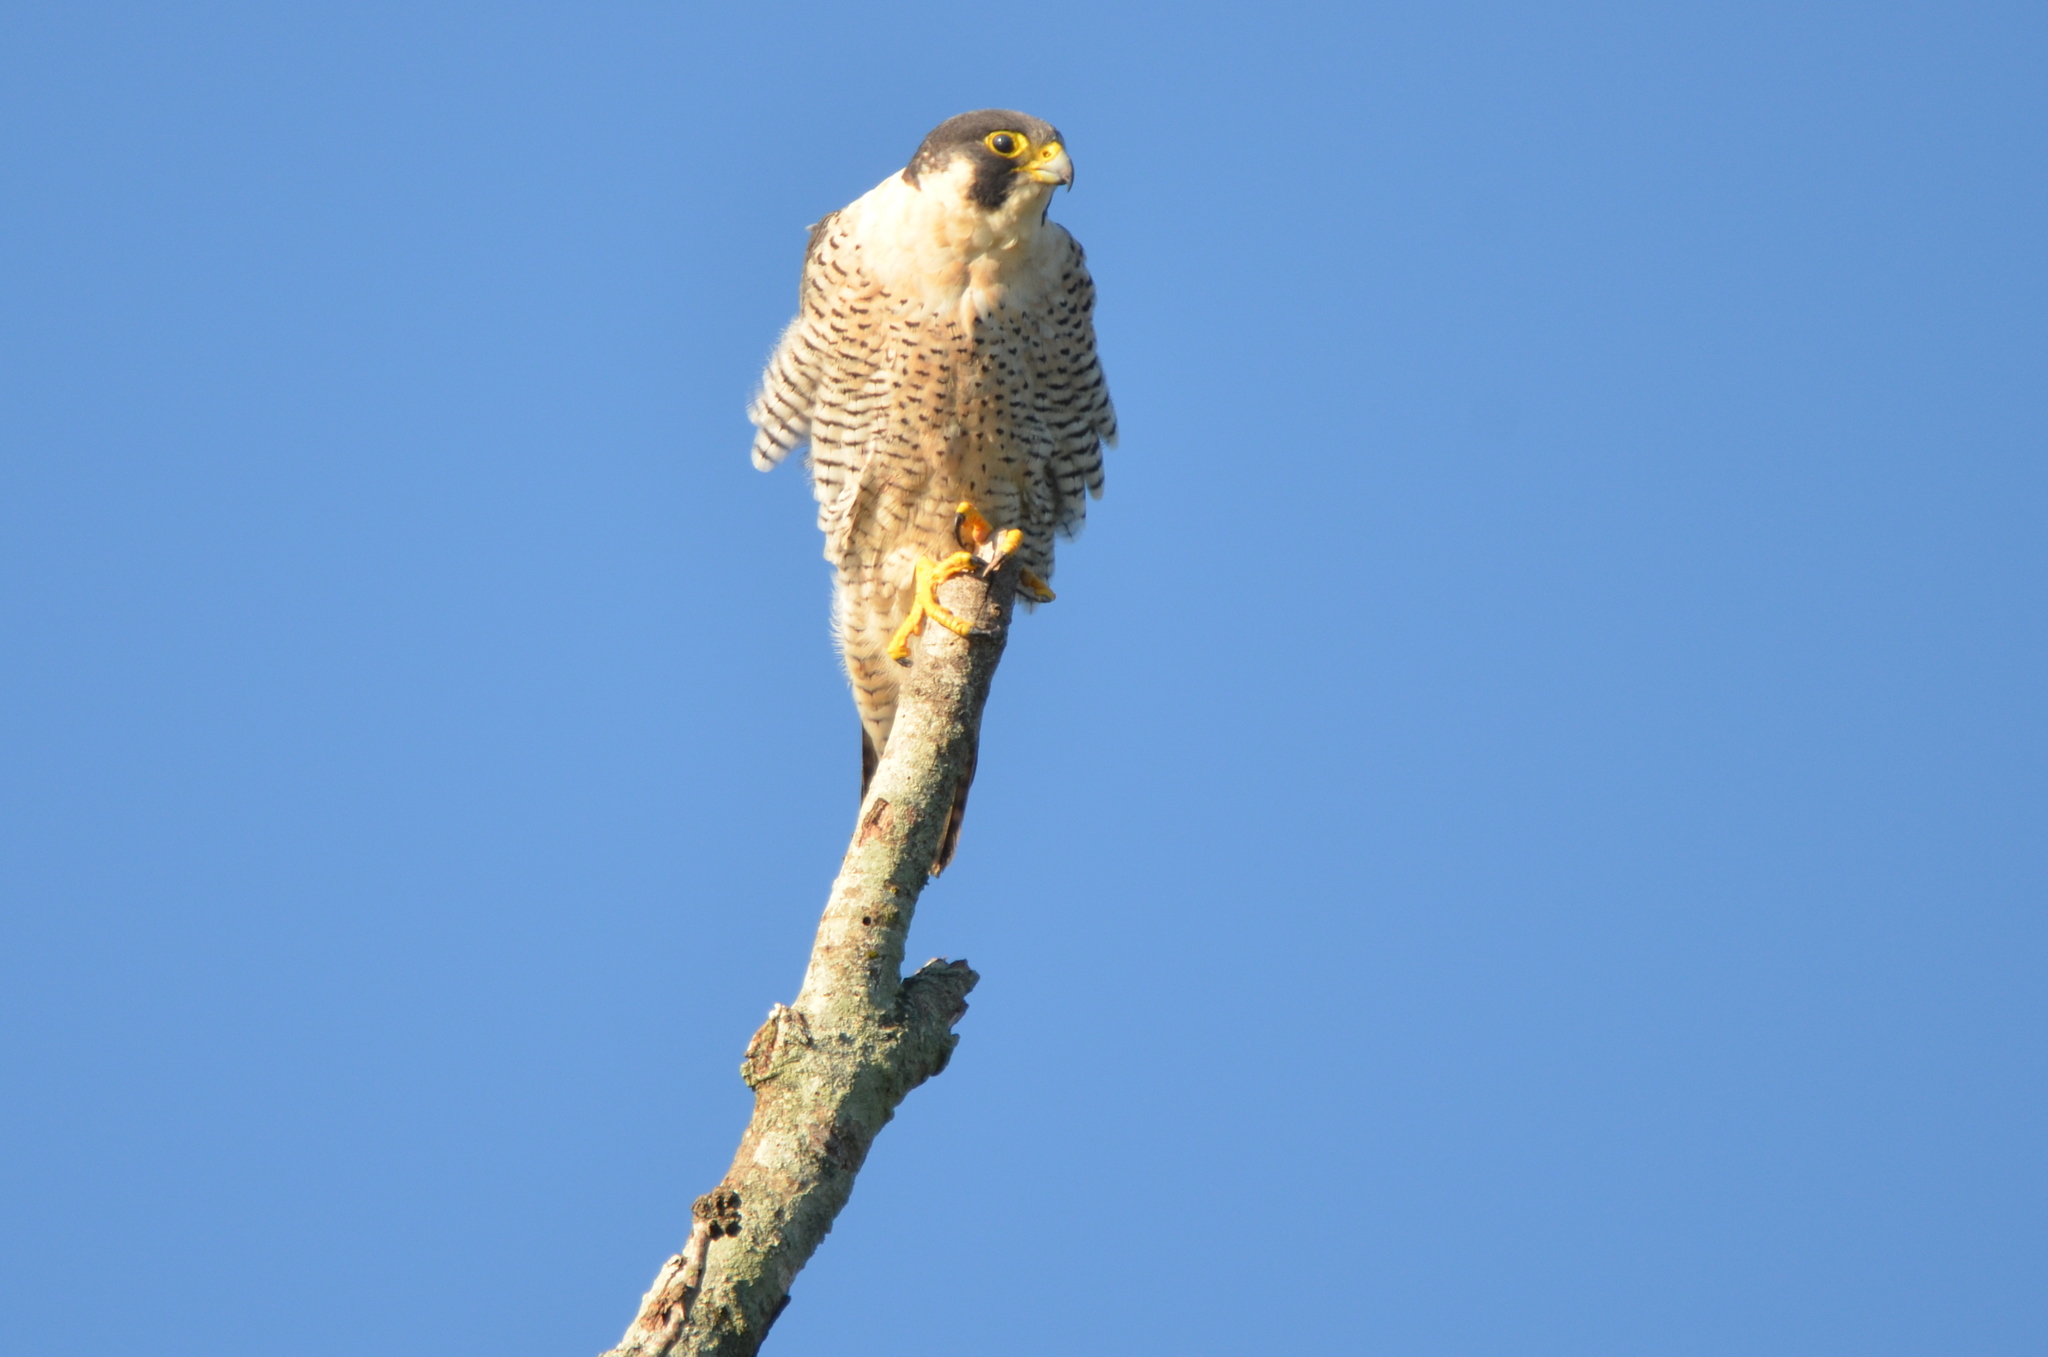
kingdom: Animalia
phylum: Chordata
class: Aves
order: Falconiformes
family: Falconidae
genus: Falco
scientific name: Falco peregrinus
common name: Peregrine falcon
